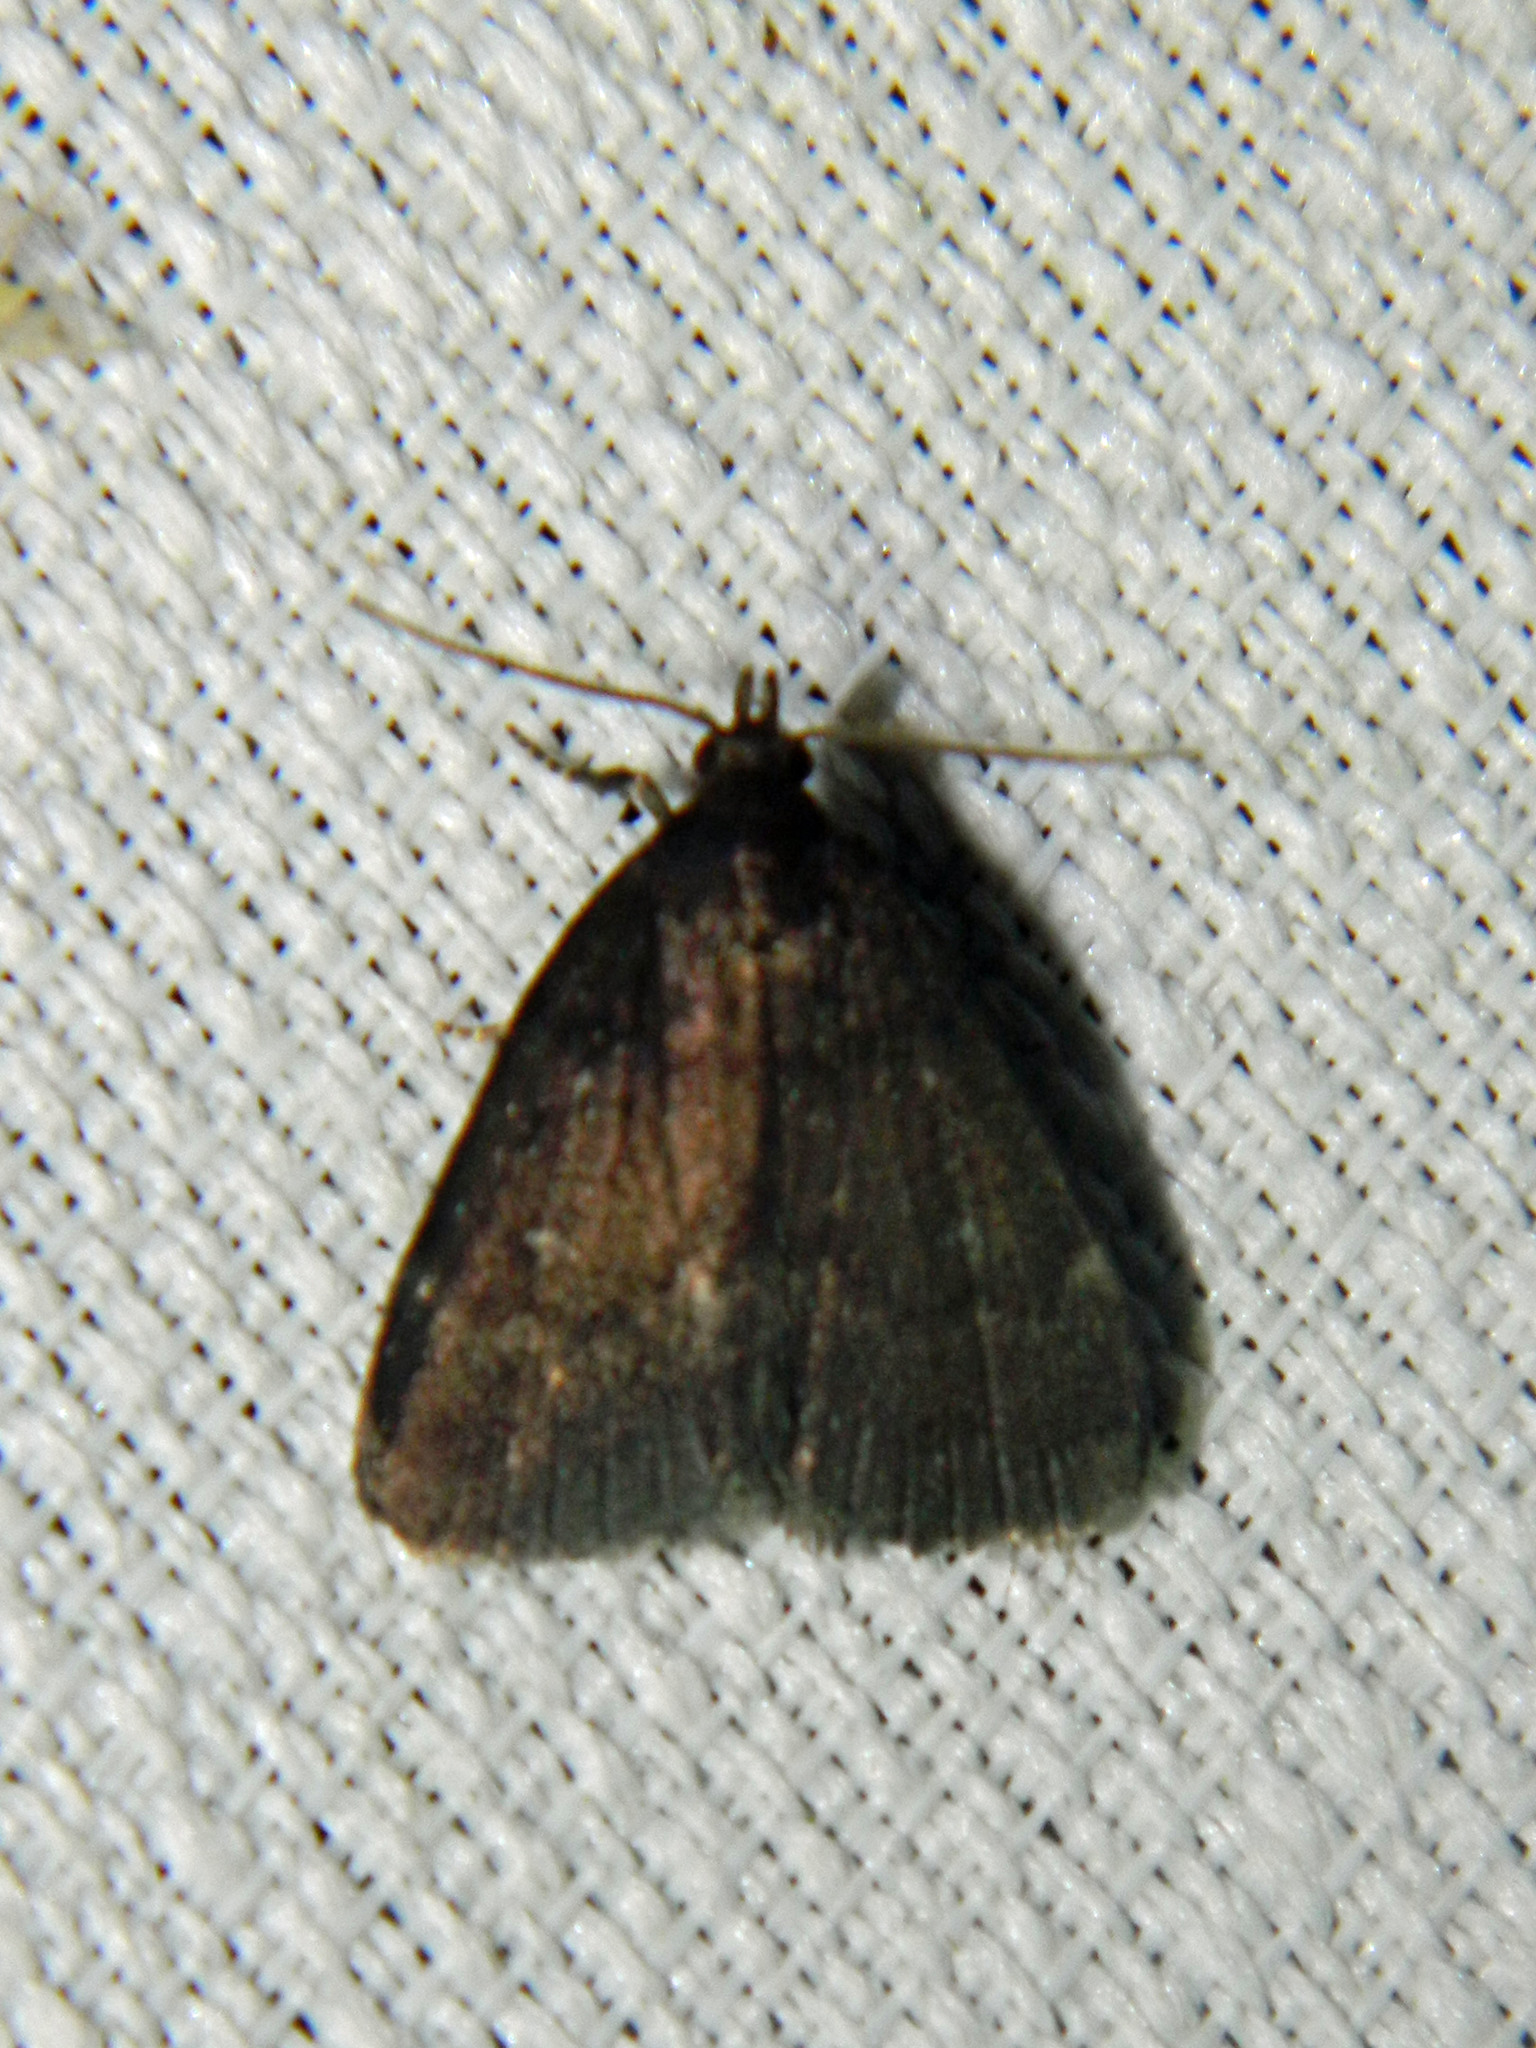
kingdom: Animalia
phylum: Arthropoda
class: Insecta
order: Lepidoptera
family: Erebidae
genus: Idia
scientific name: Idia rotundalis
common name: Rotund idia moth
